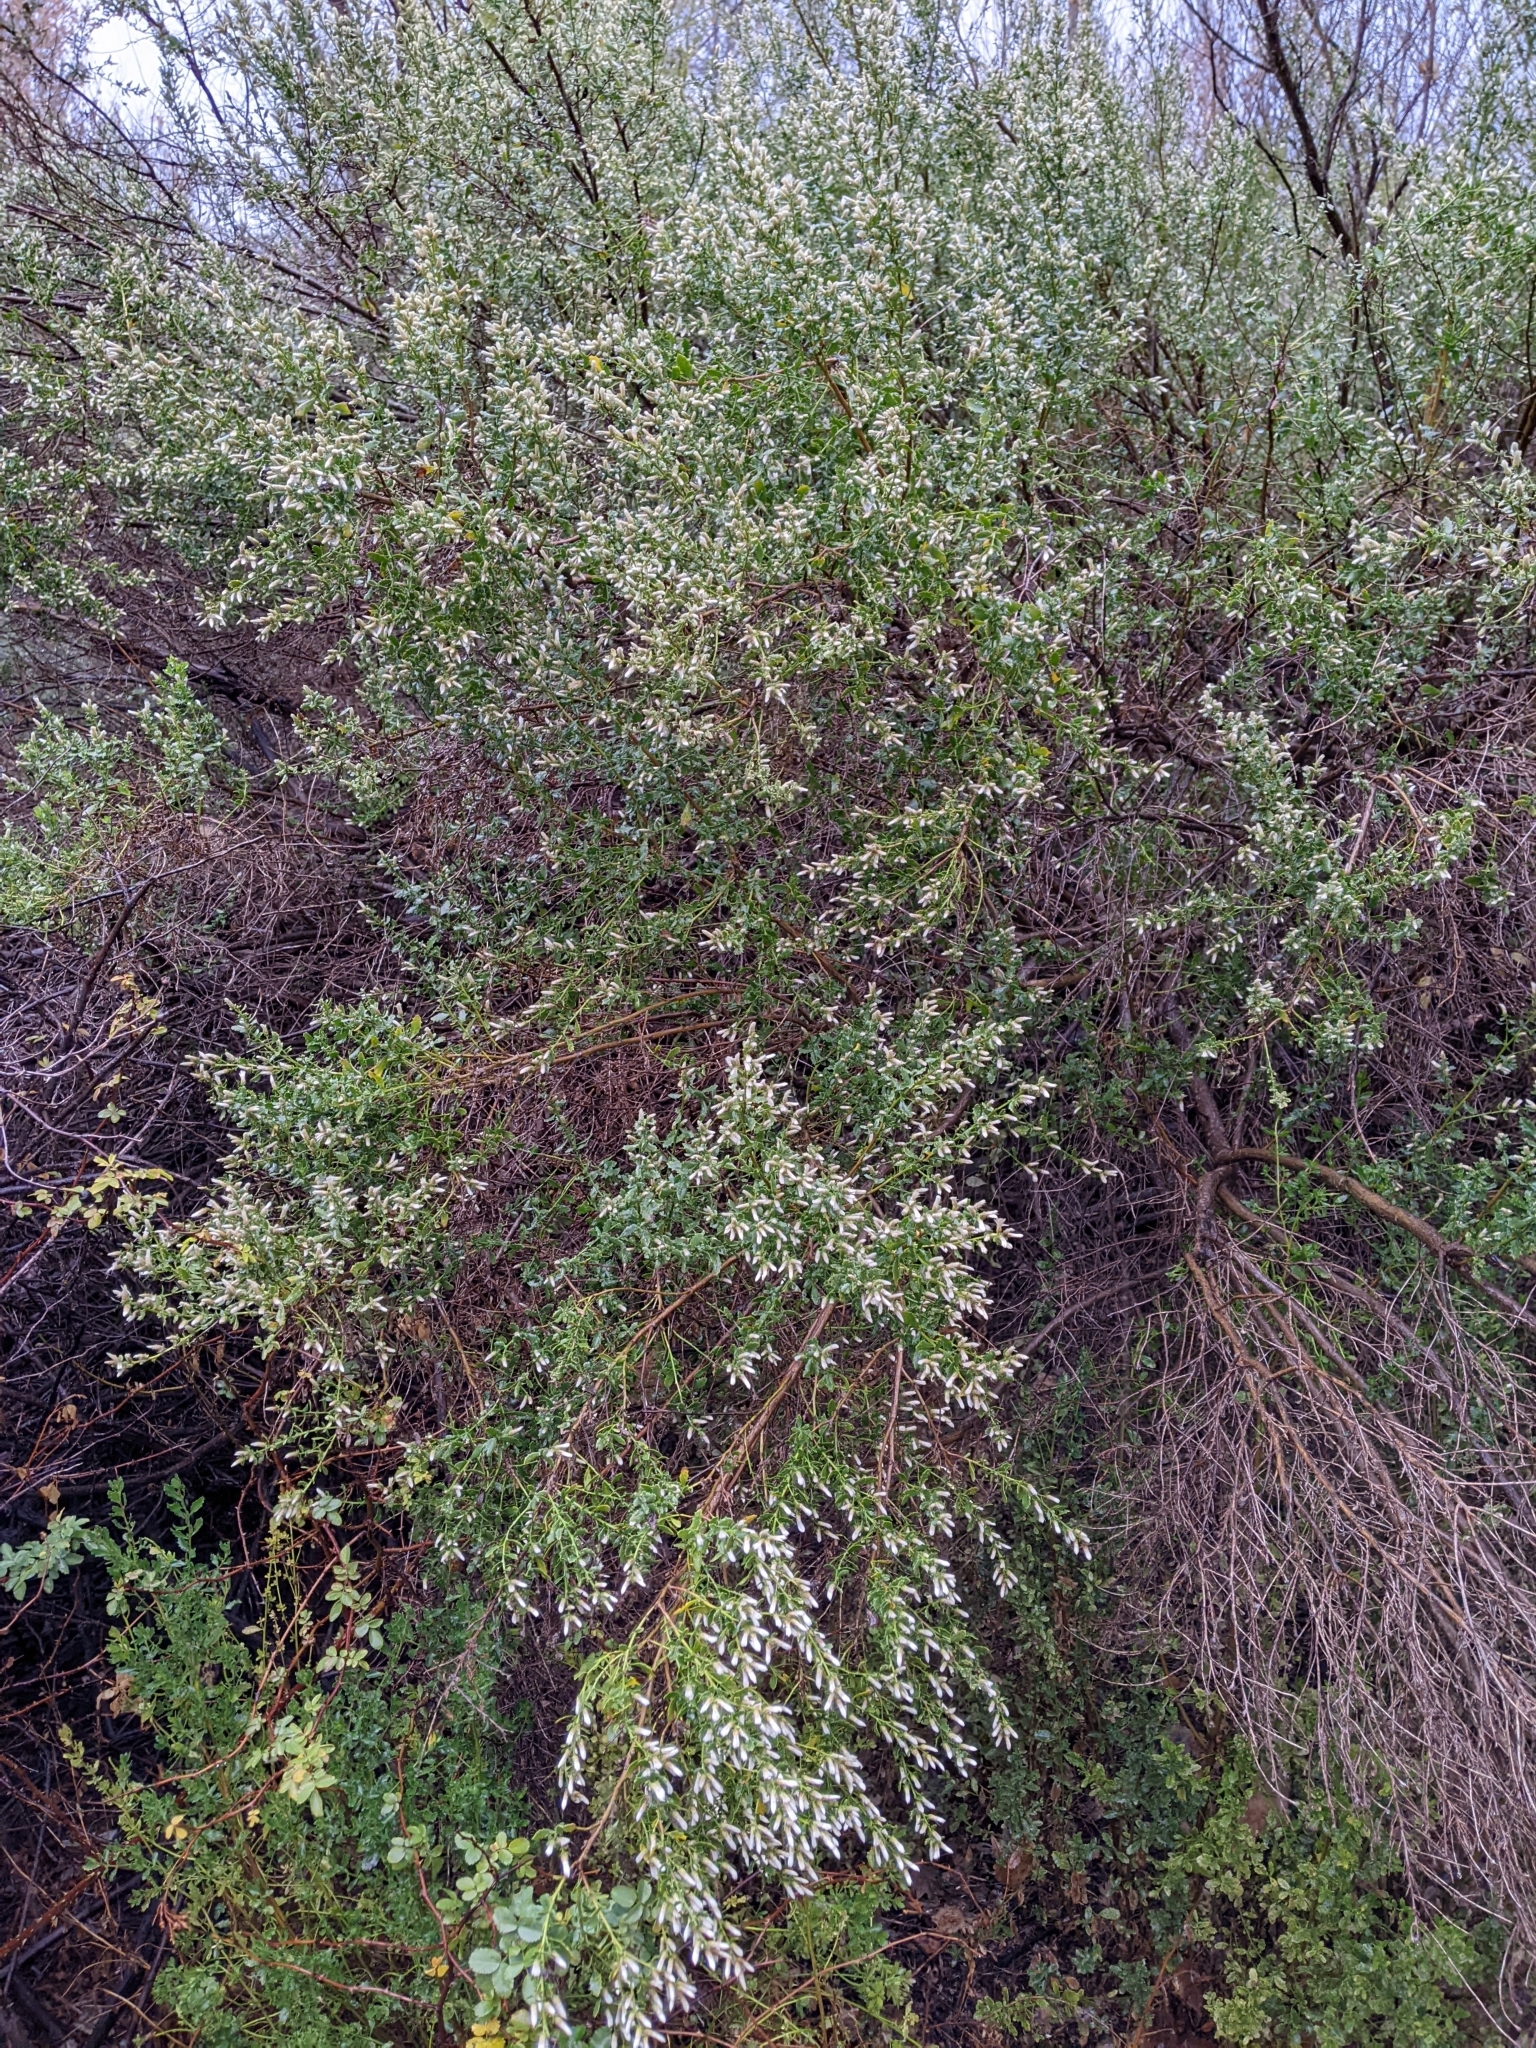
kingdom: Plantae
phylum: Tracheophyta
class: Magnoliopsida
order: Asterales
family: Asteraceae
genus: Baccharis
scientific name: Baccharis pilularis
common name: Coyotebrush
